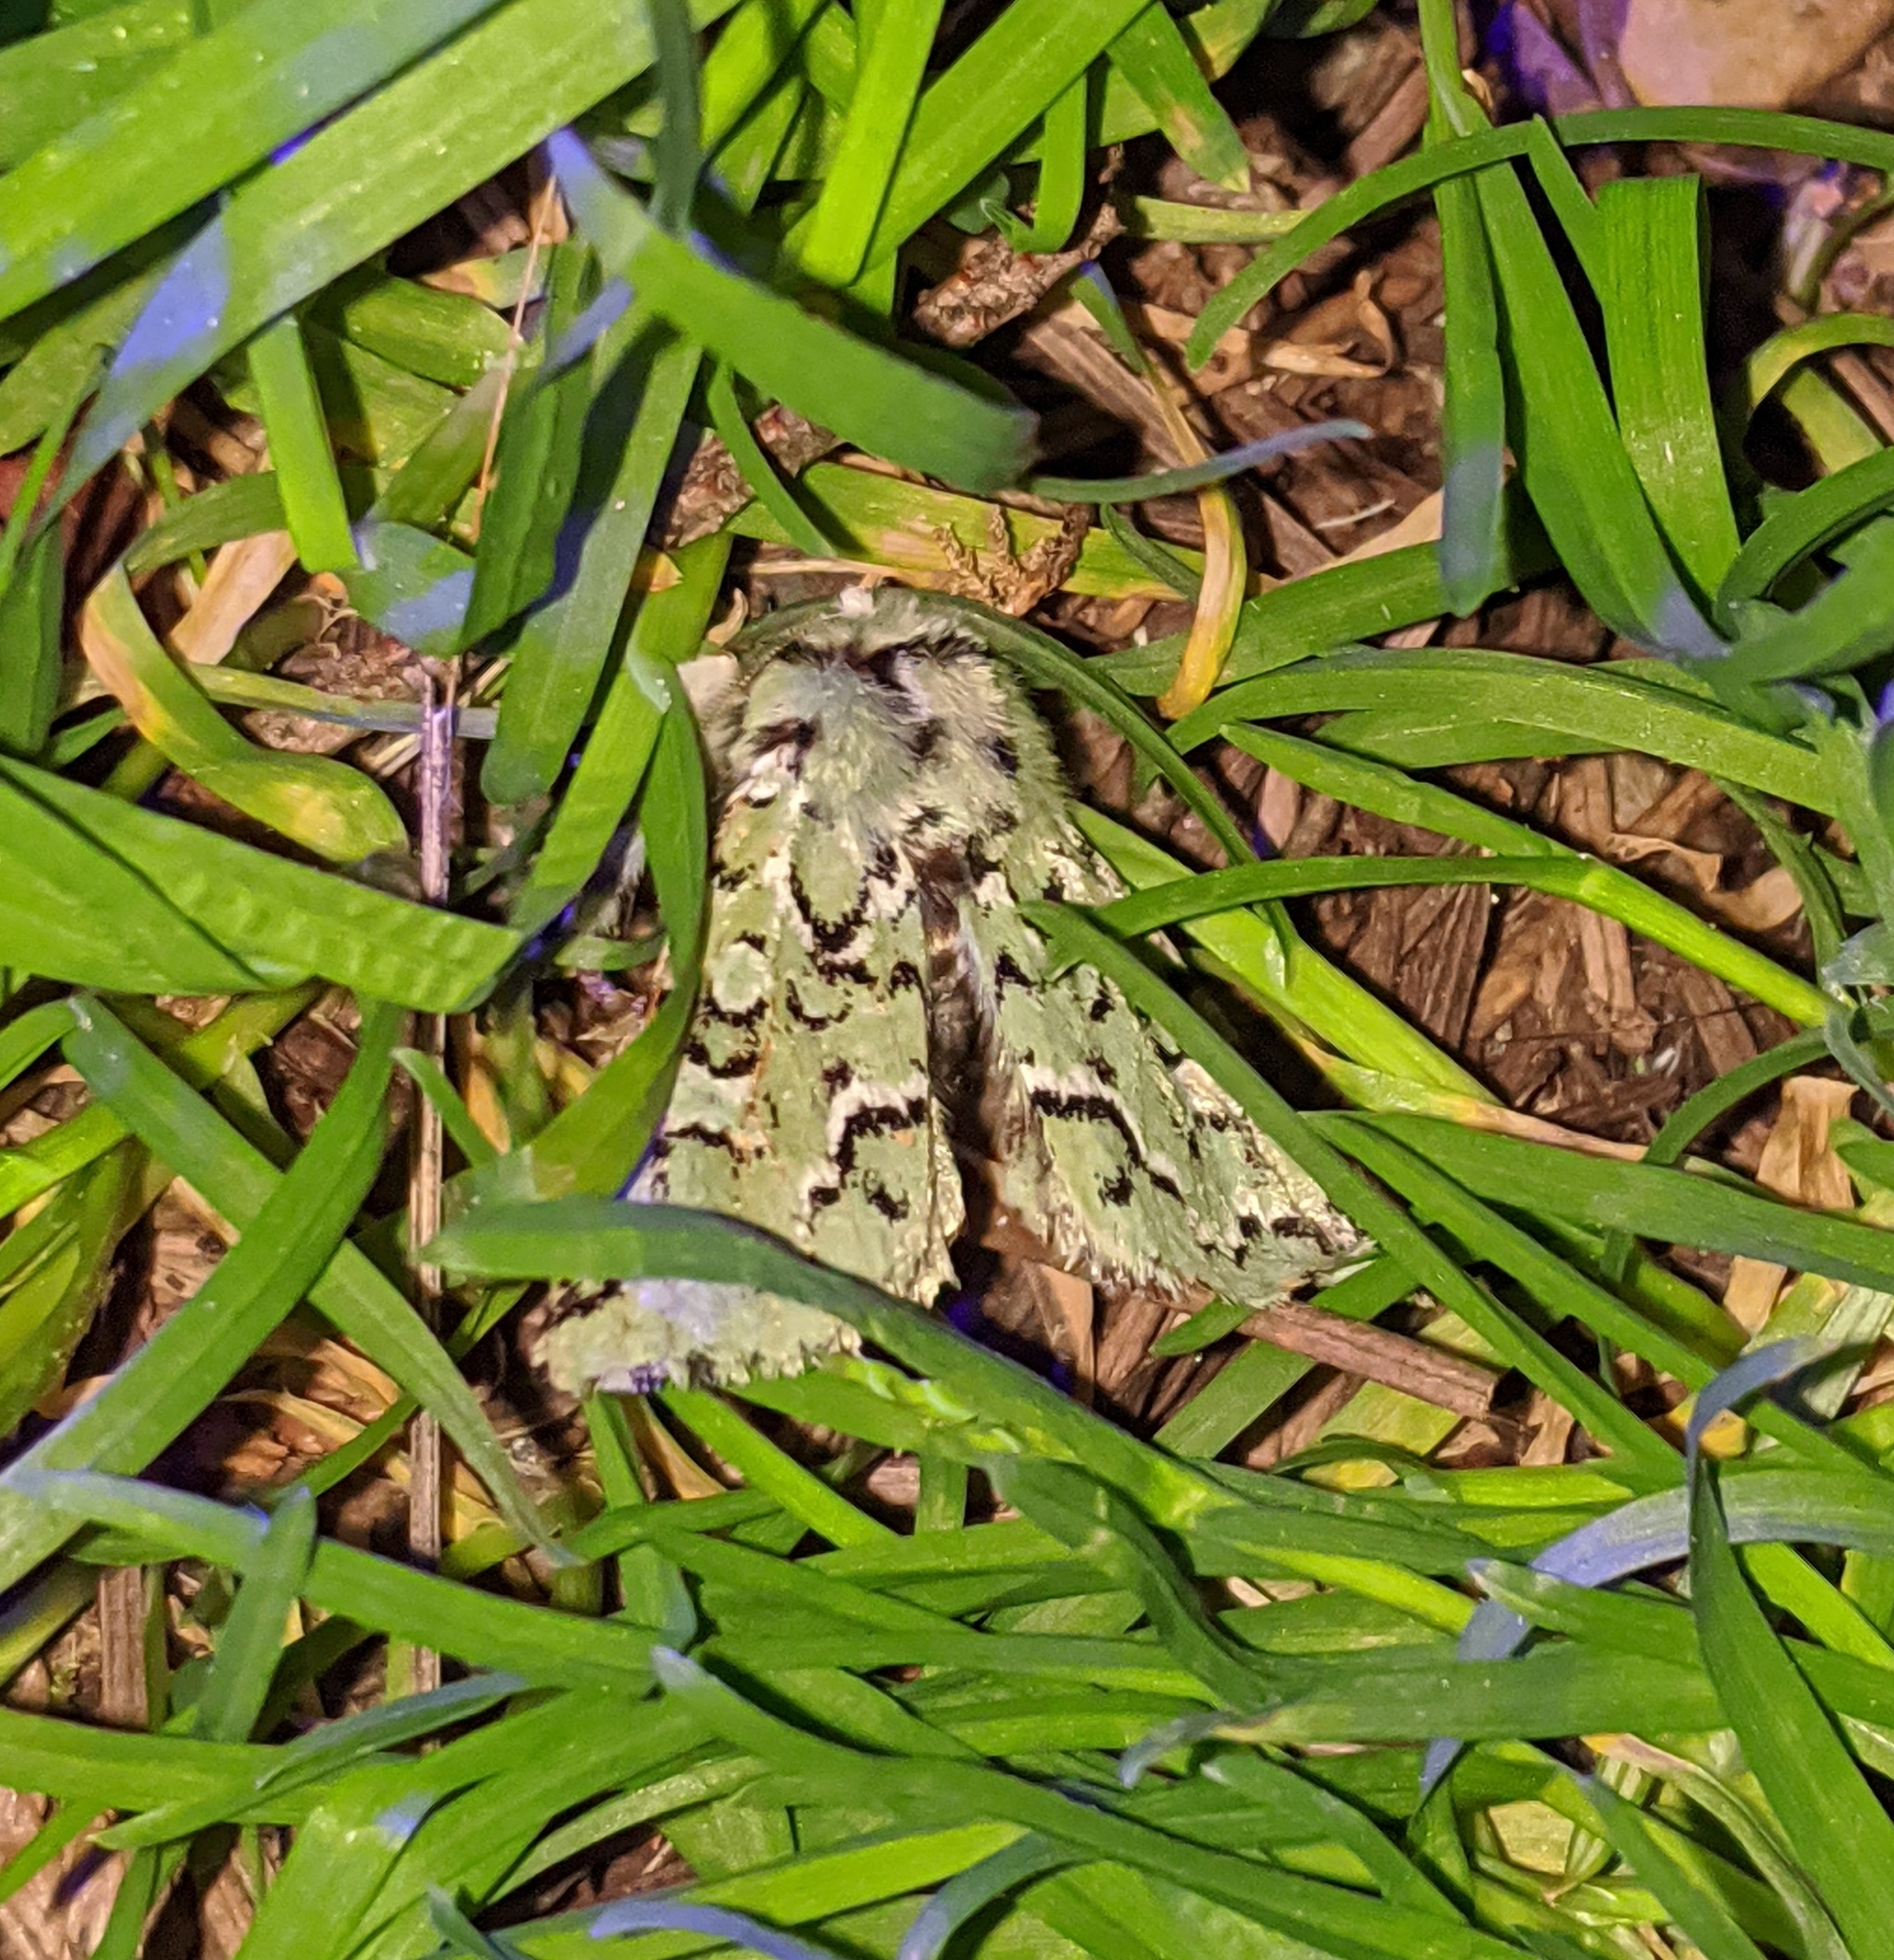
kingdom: Animalia
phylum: Arthropoda
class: Insecta
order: Lepidoptera
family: Noctuidae
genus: Feralia
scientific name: Feralia deceptiva
